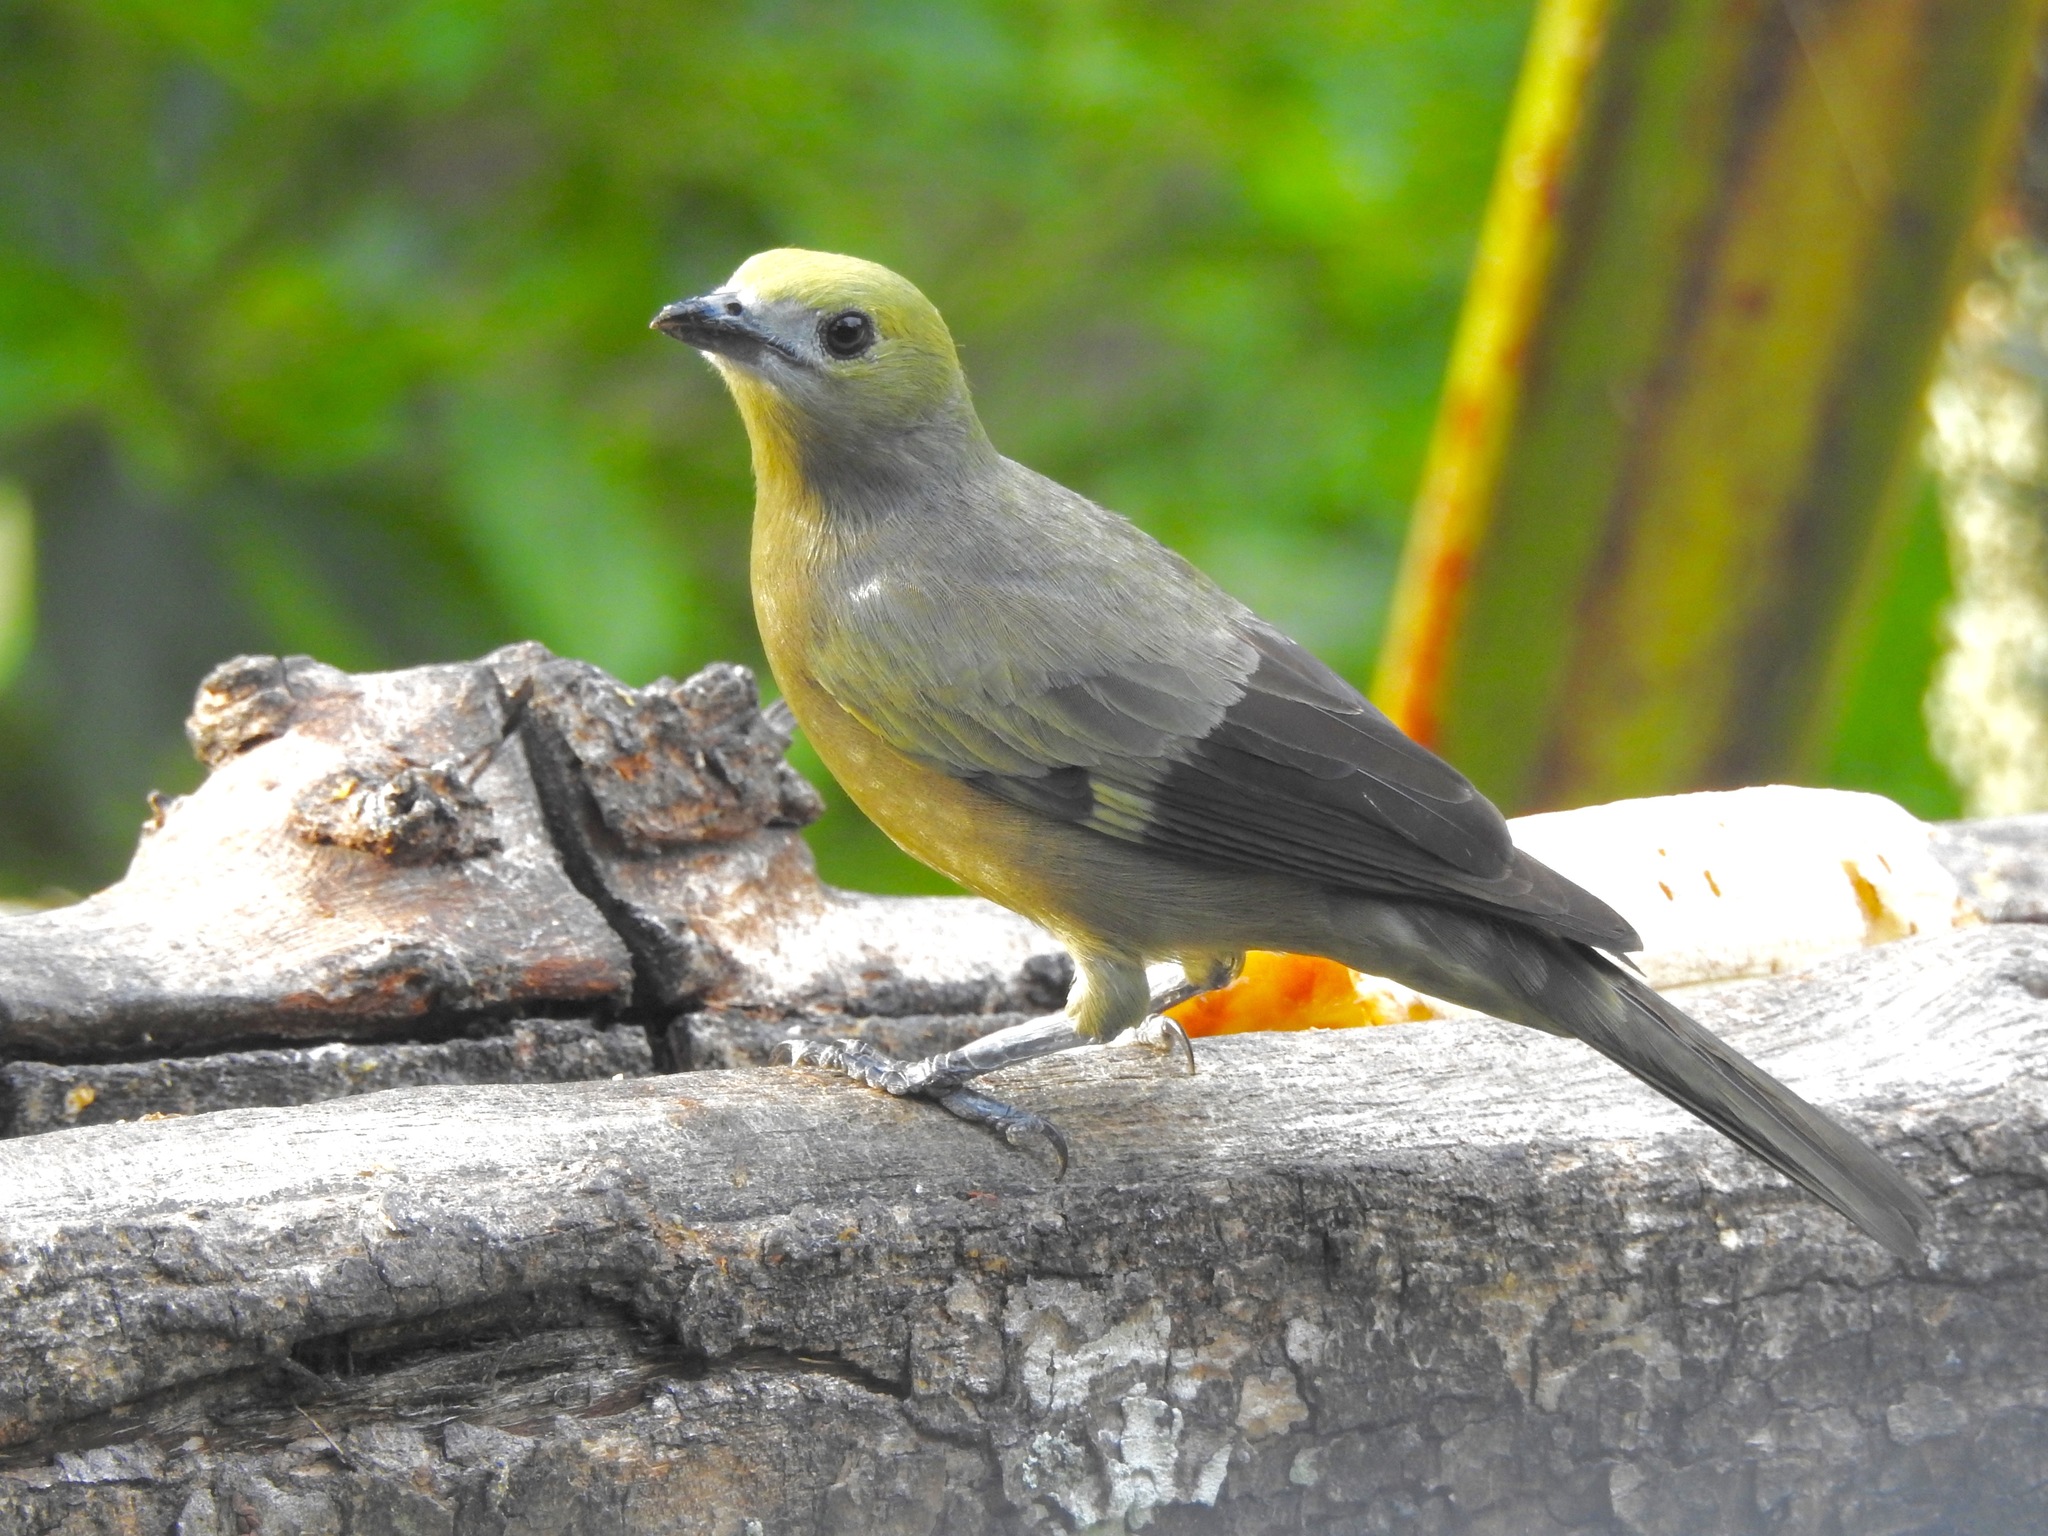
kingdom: Animalia
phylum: Chordata
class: Aves
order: Passeriformes
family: Thraupidae
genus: Thraupis
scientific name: Thraupis palmarum
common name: Palm tanager
